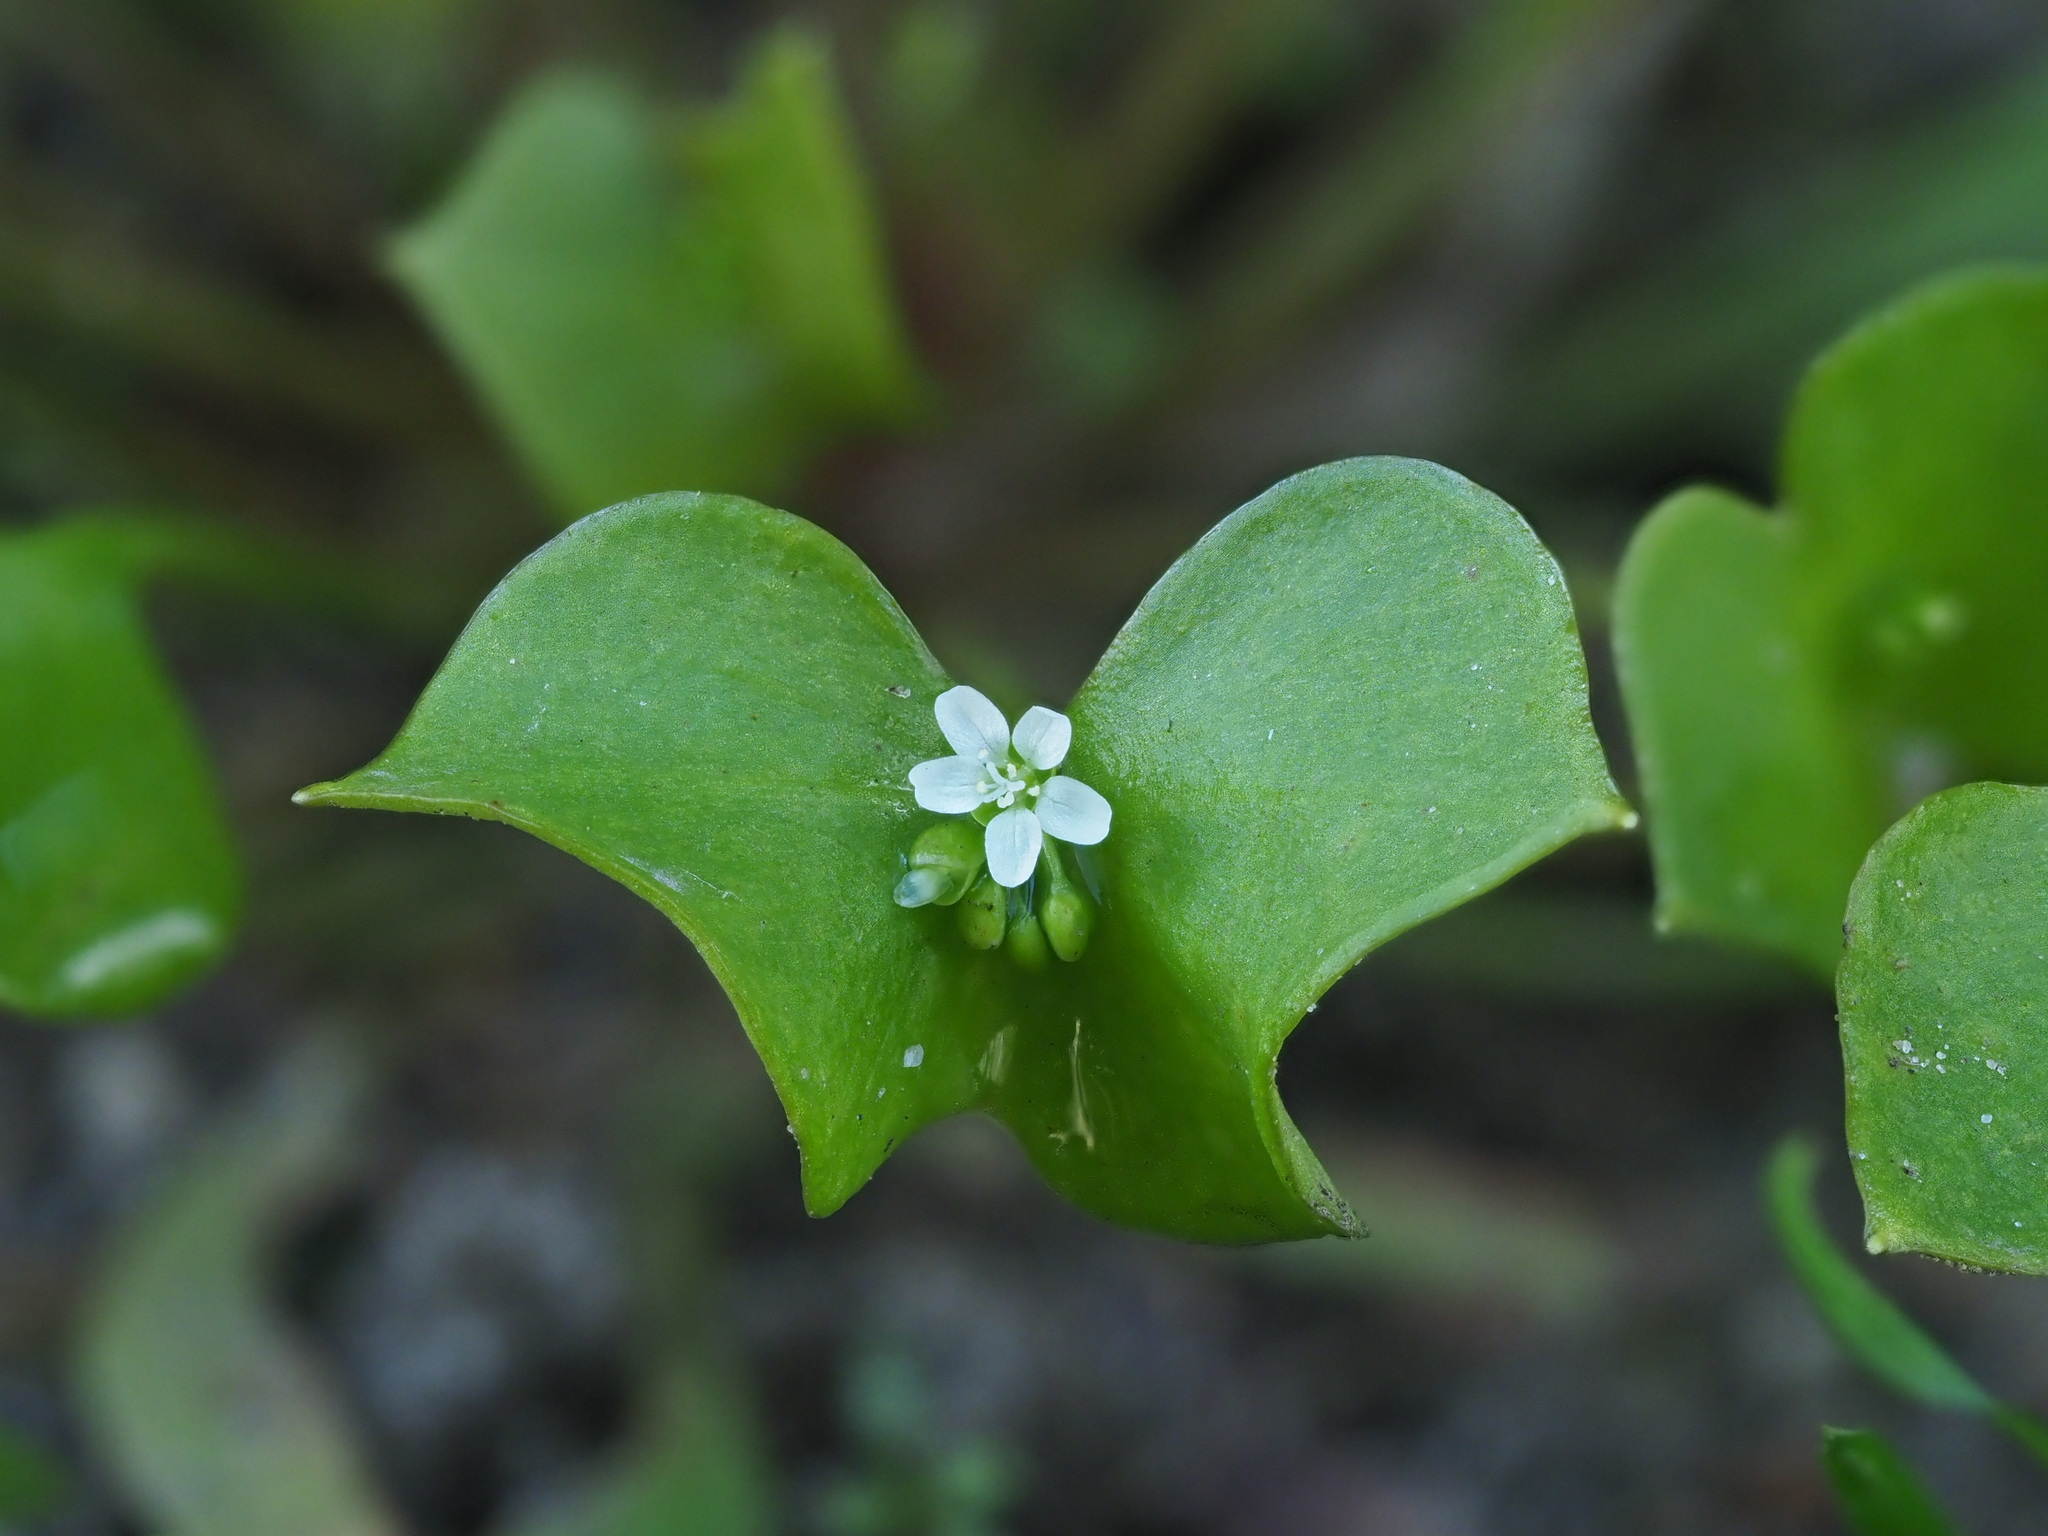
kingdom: Plantae
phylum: Tracheophyta
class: Magnoliopsida
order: Caryophyllales
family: Montiaceae
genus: Claytonia
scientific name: Claytonia perfoliata
